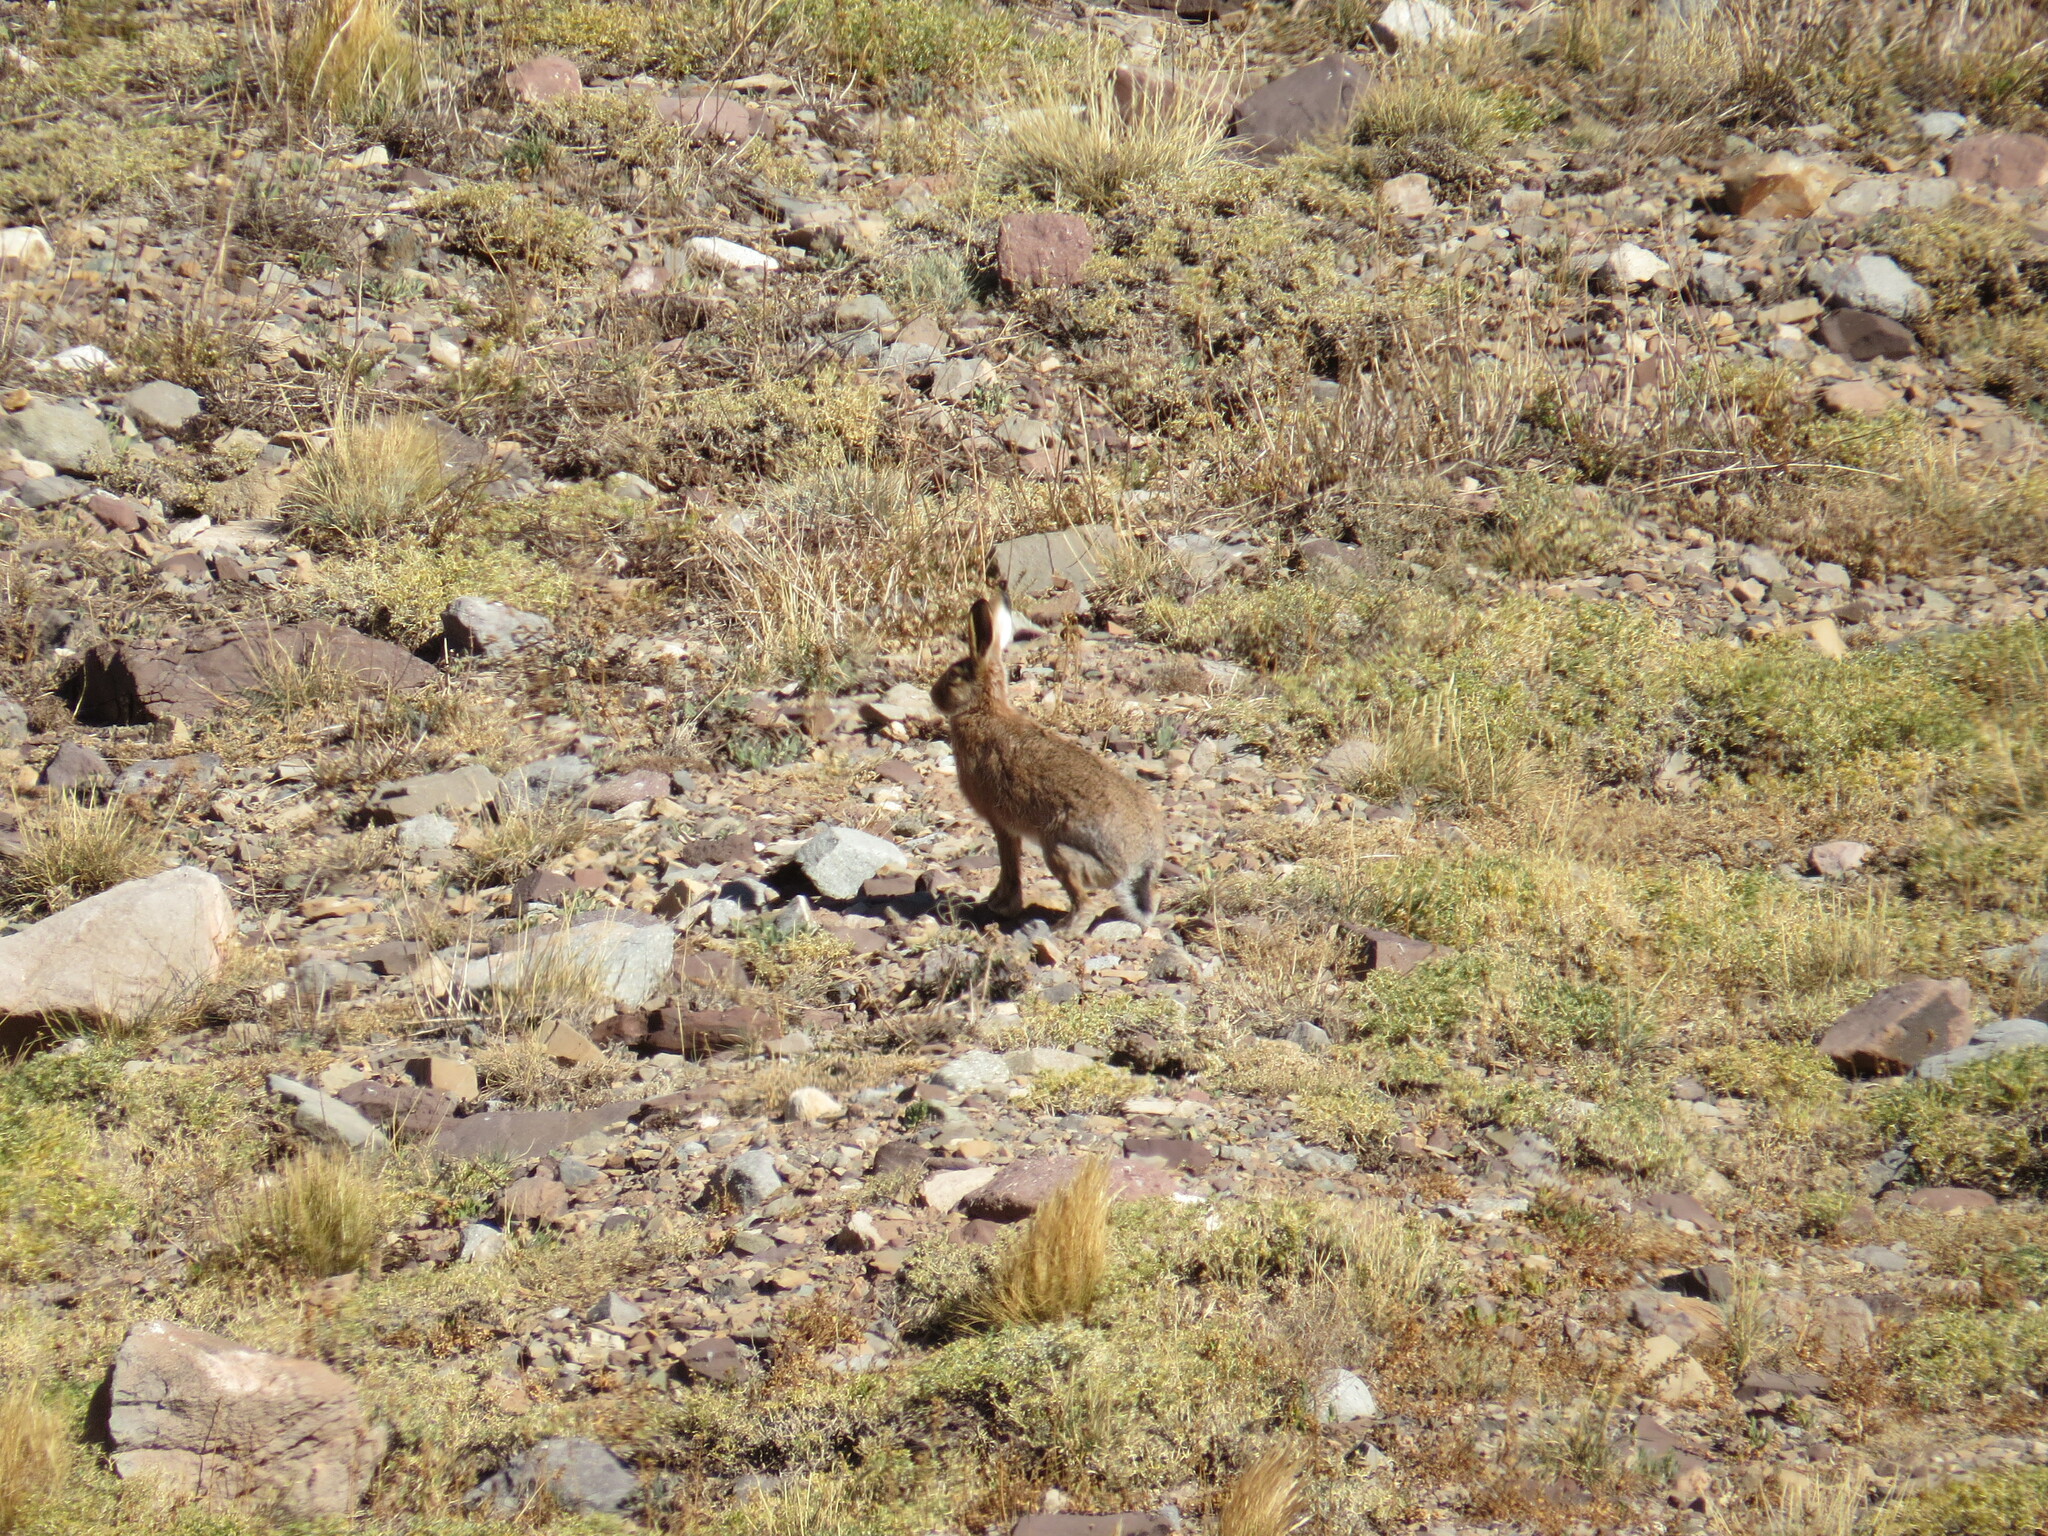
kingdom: Animalia
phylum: Chordata
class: Mammalia
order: Lagomorpha
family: Leporidae
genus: Lepus
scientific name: Lepus europaeus
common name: European hare
